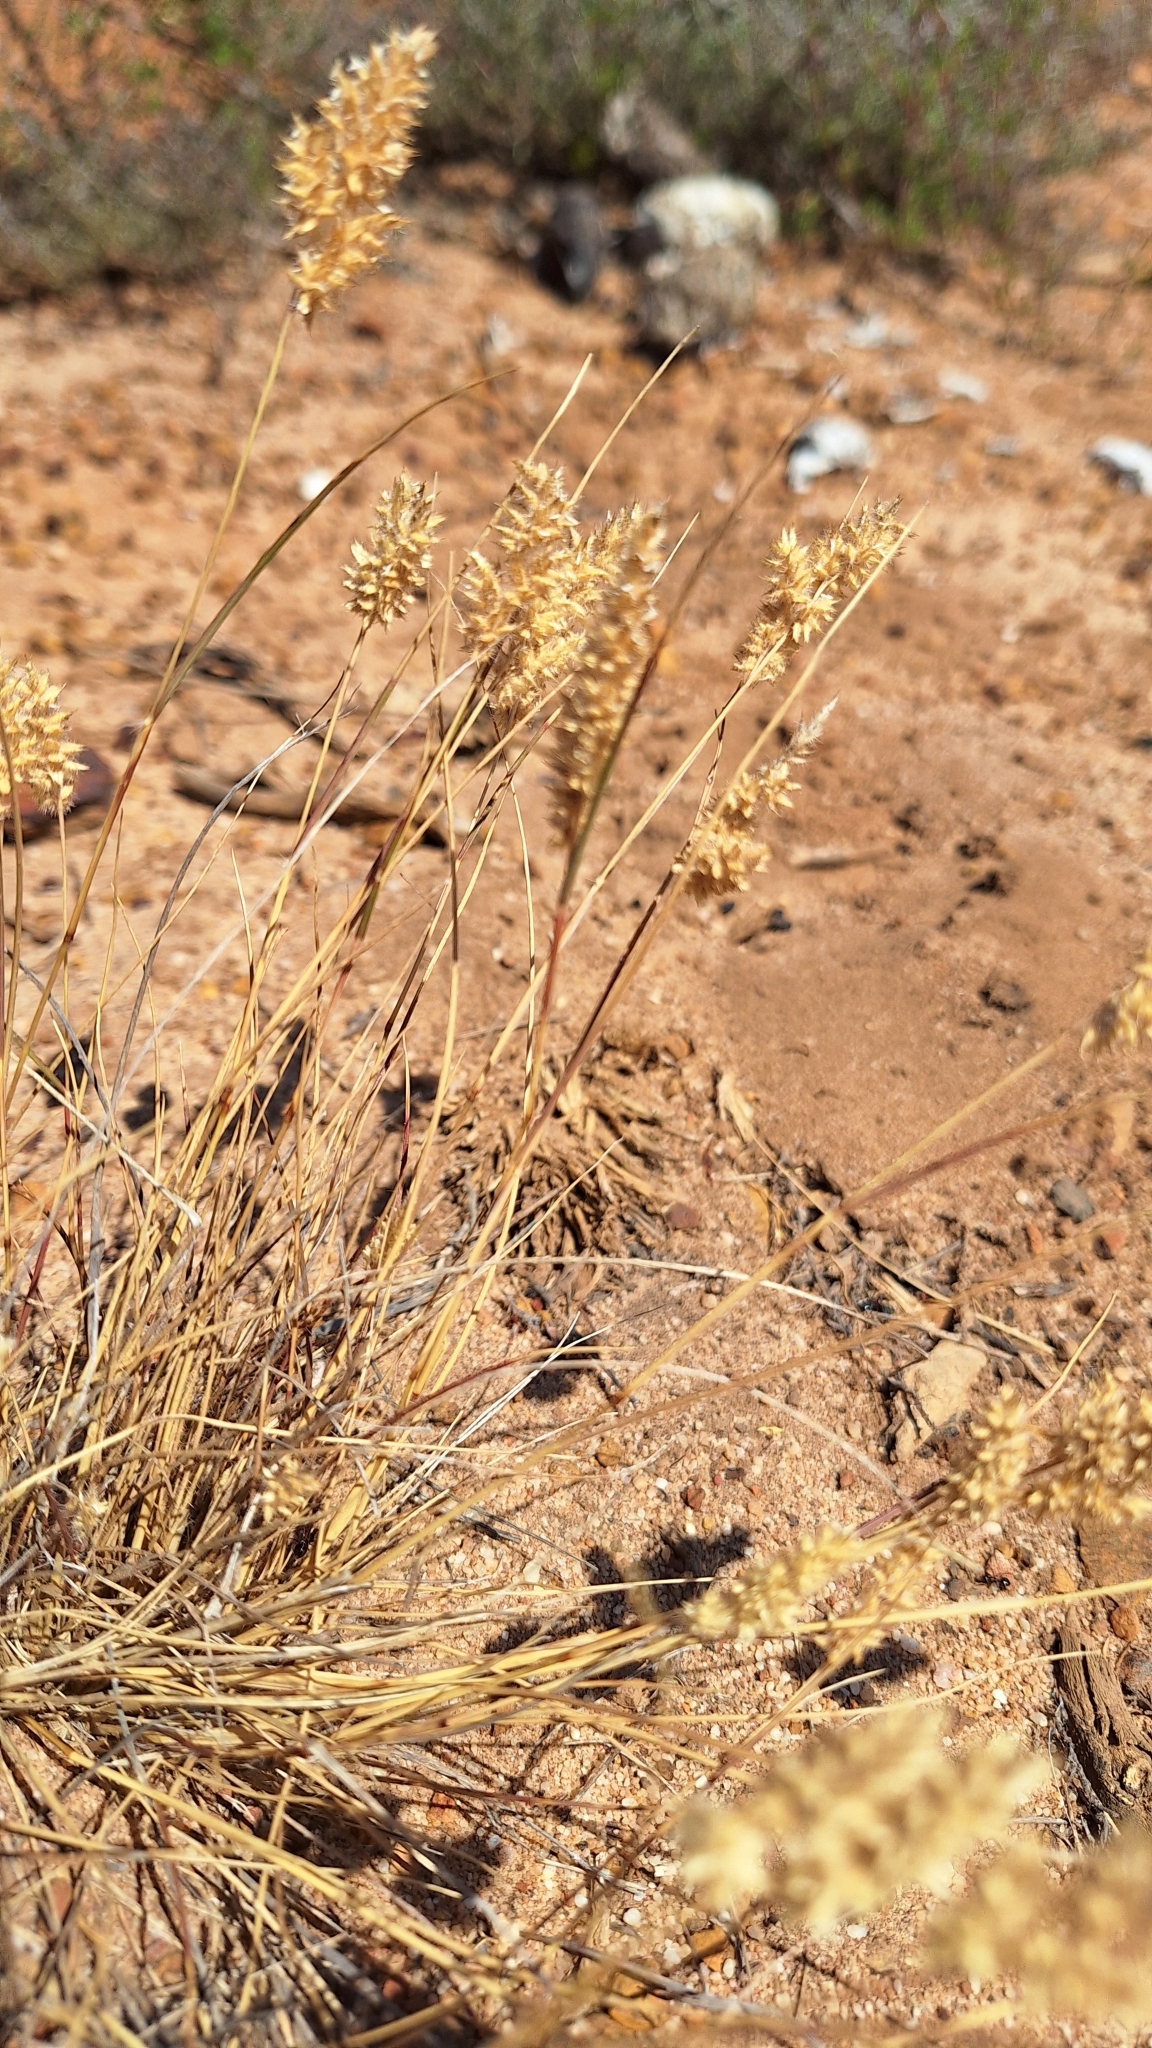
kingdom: Plantae
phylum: Tracheophyta
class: Liliopsida
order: Poales
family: Poaceae
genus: Tribolium
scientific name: Tribolium hispidum
